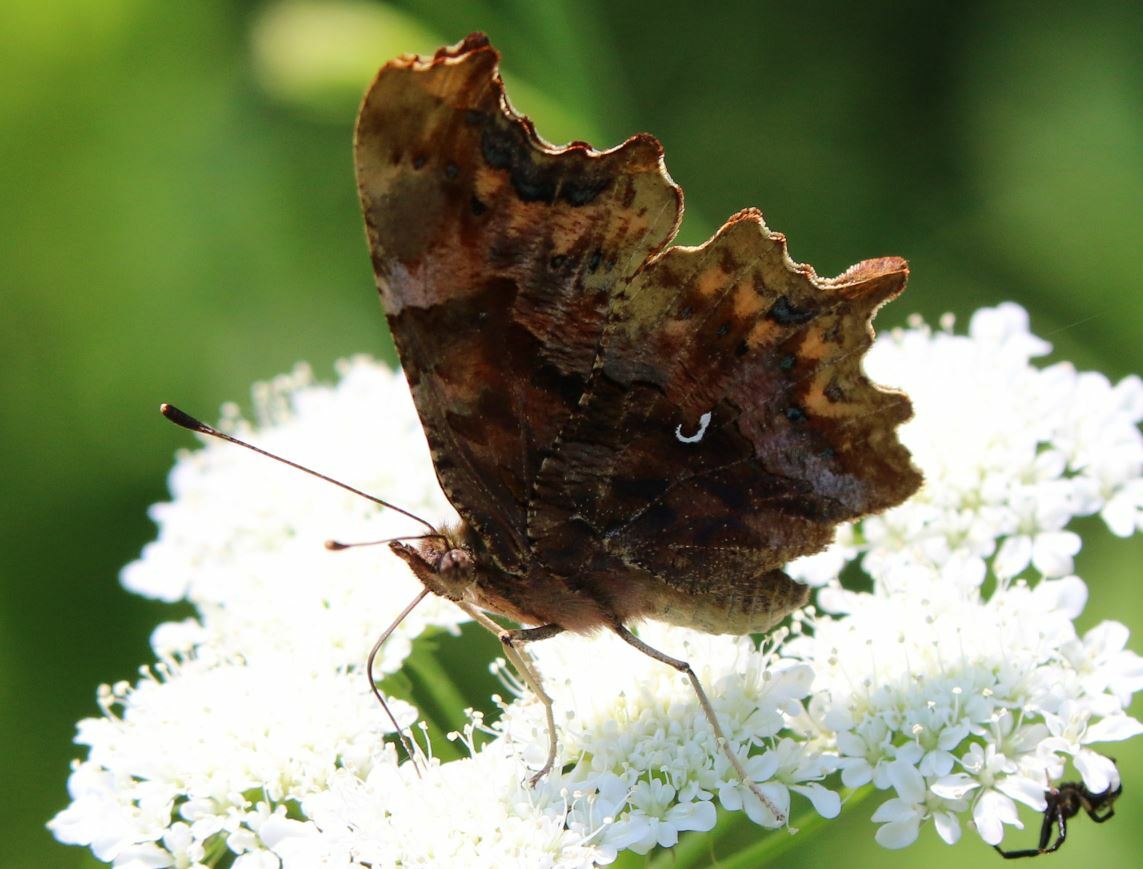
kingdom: Animalia
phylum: Arthropoda
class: Insecta
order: Lepidoptera
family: Nymphalidae
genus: Polygonia
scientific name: Polygonia c-album
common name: Comma
